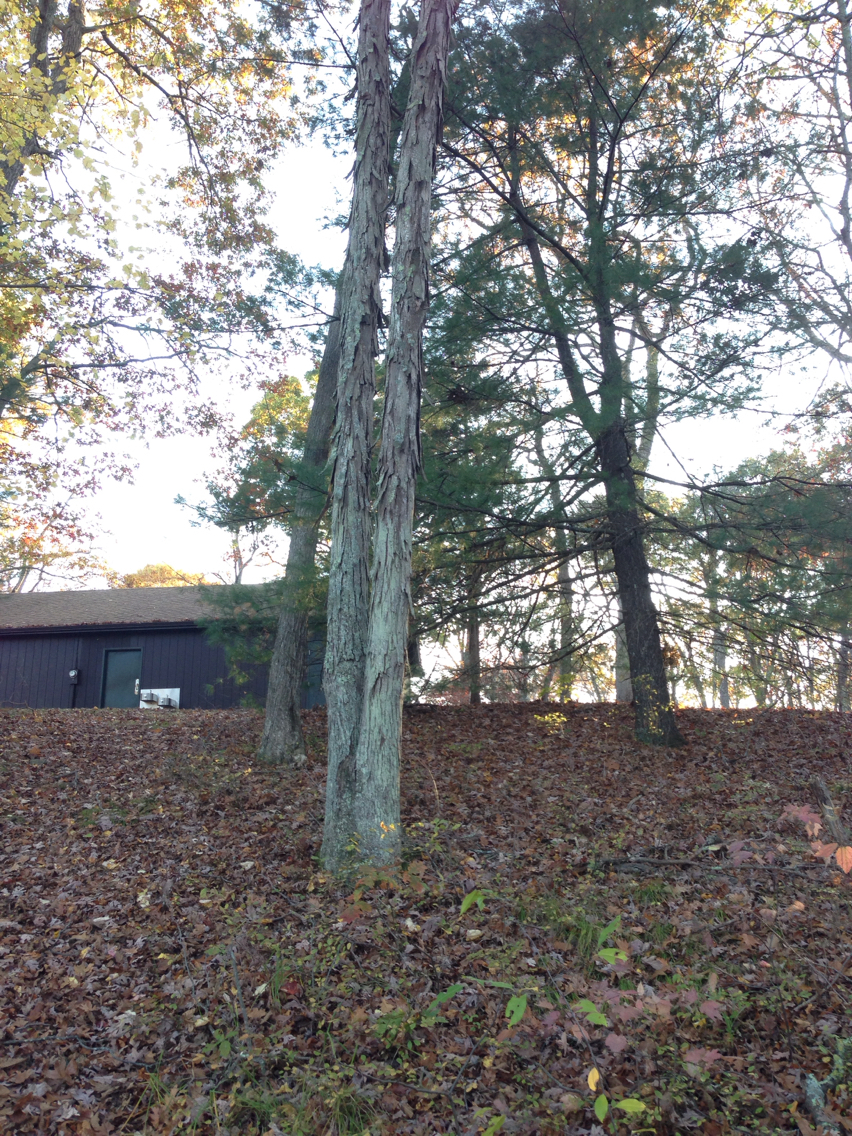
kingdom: Plantae
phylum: Tracheophyta
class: Magnoliopsida
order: Fagales
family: Juglandaceae
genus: Carya
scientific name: Carya ovata
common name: Shagbark hickory
